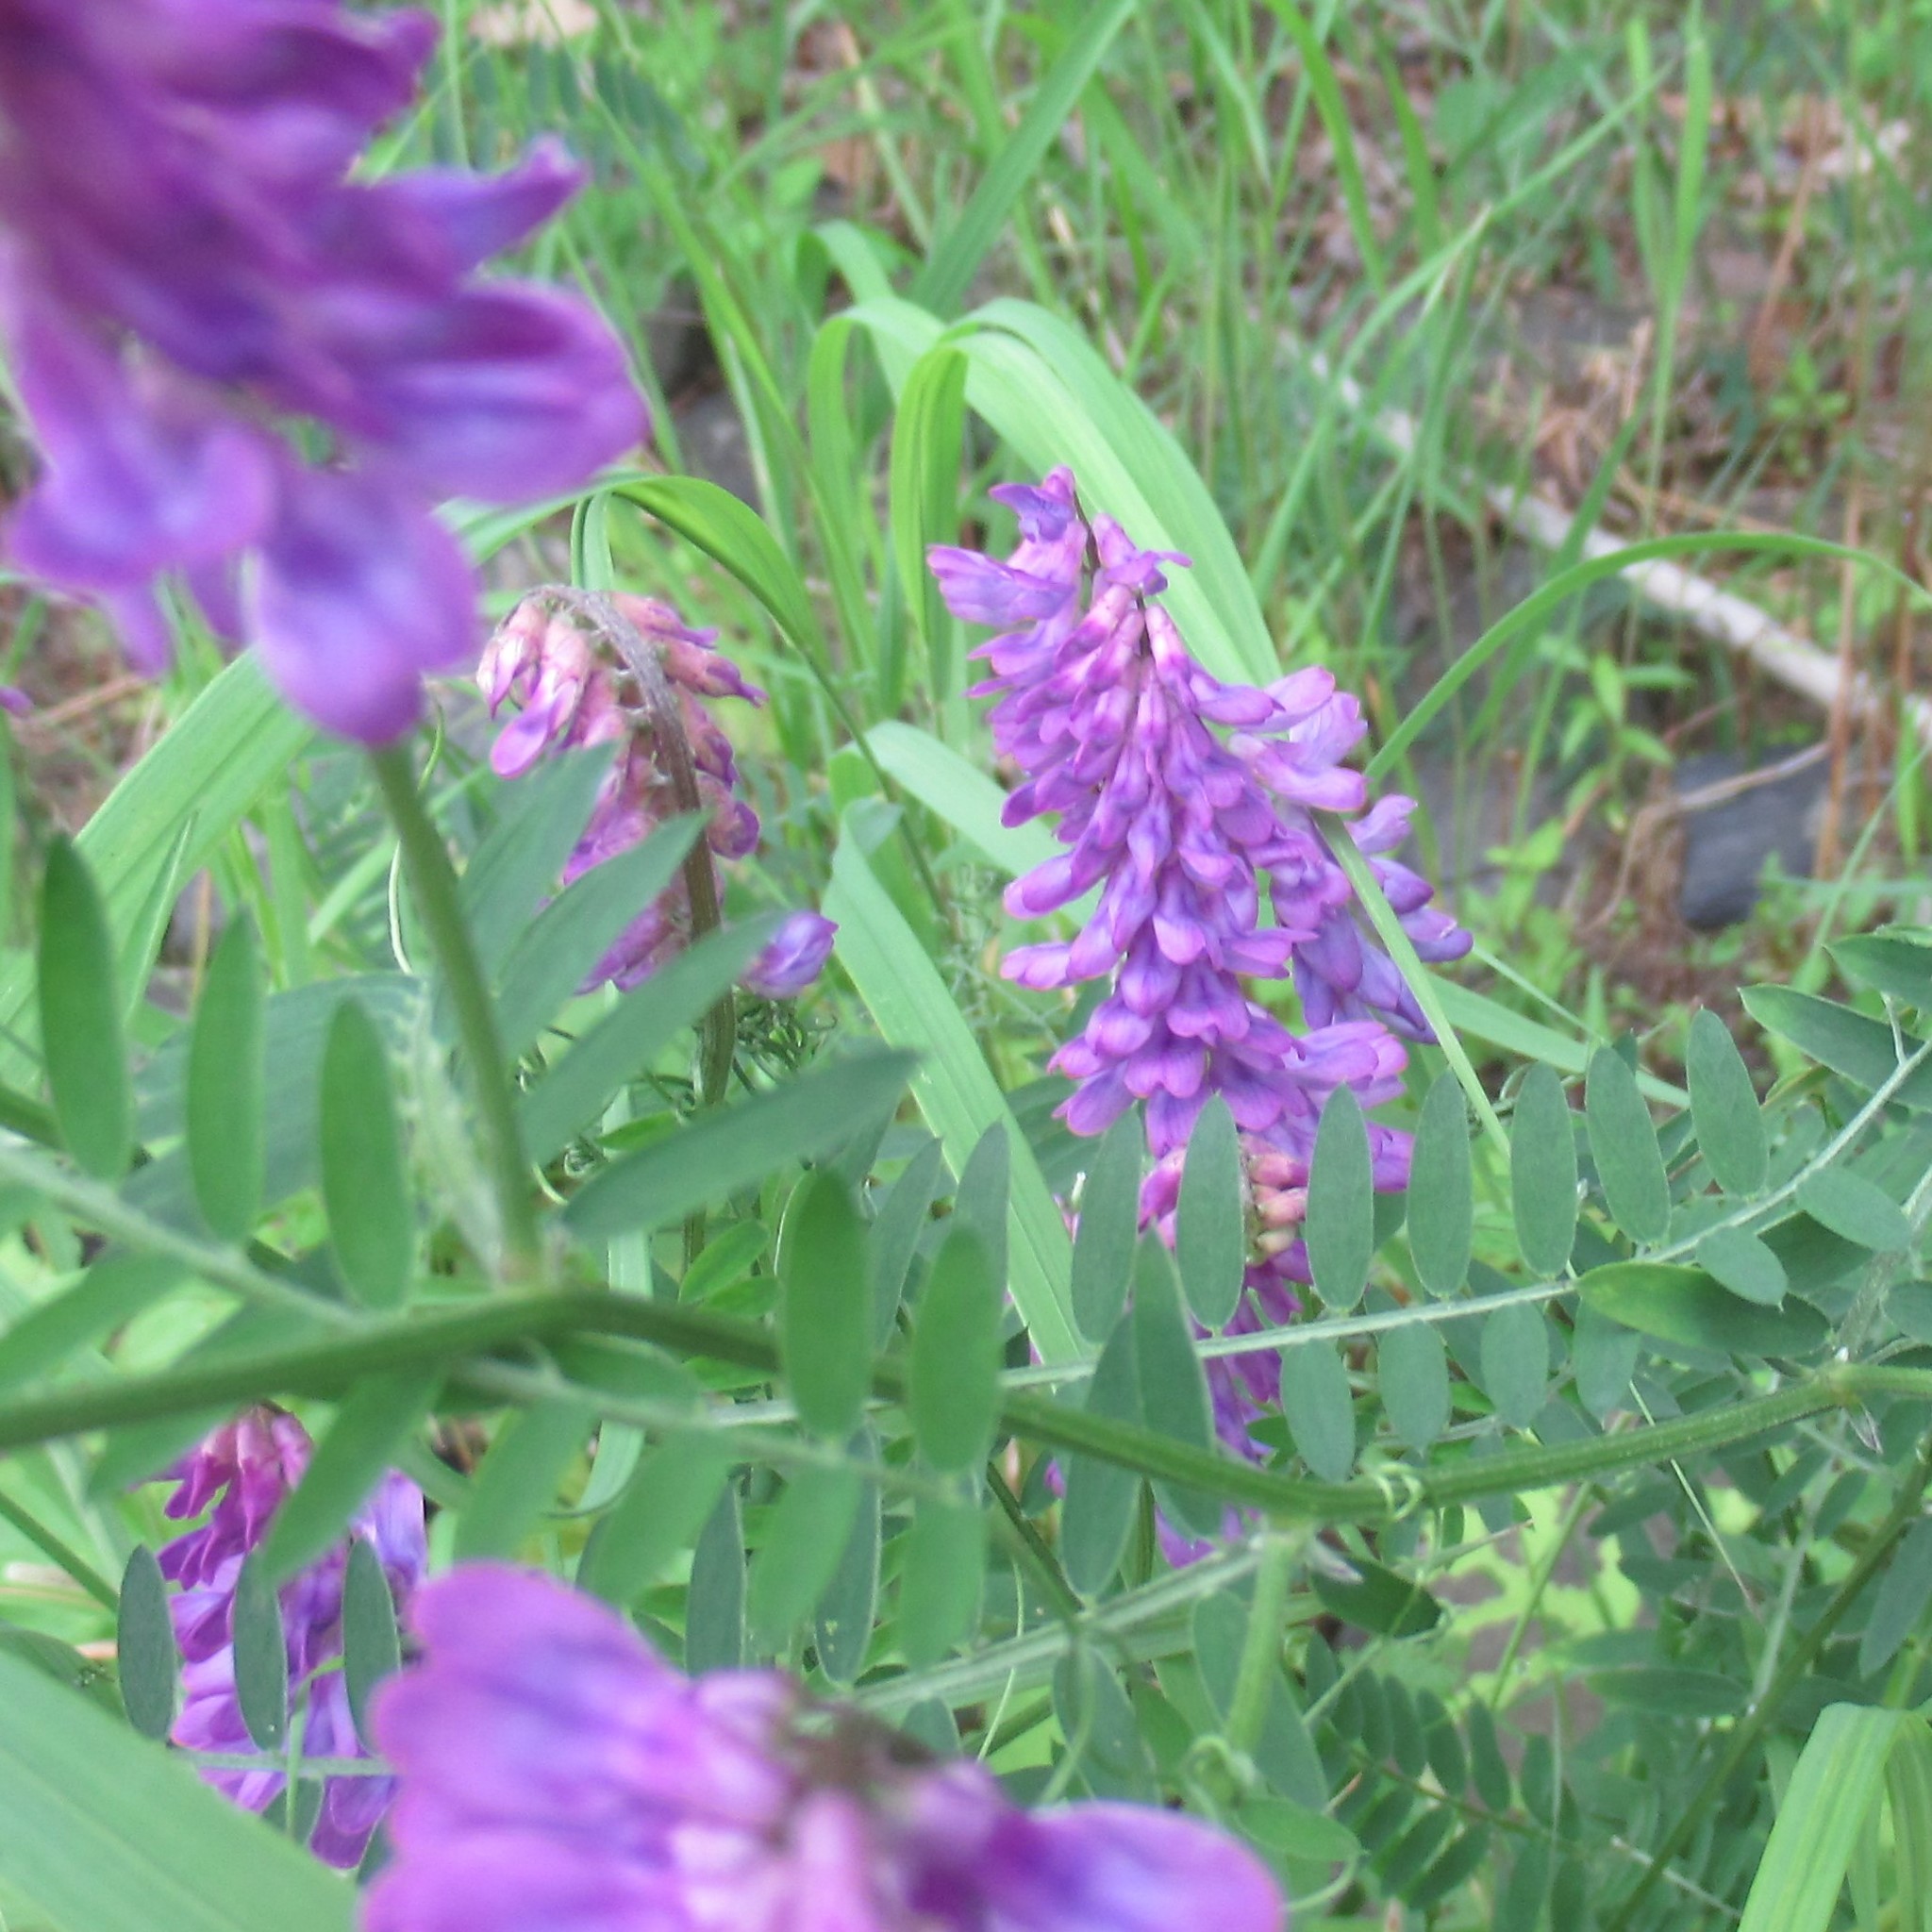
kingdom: Plantae
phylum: Tracheophyta
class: Magnoliopsida
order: Fabales
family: Fabaceae
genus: Vicia
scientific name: Vicia cracca
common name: Bird vetch
